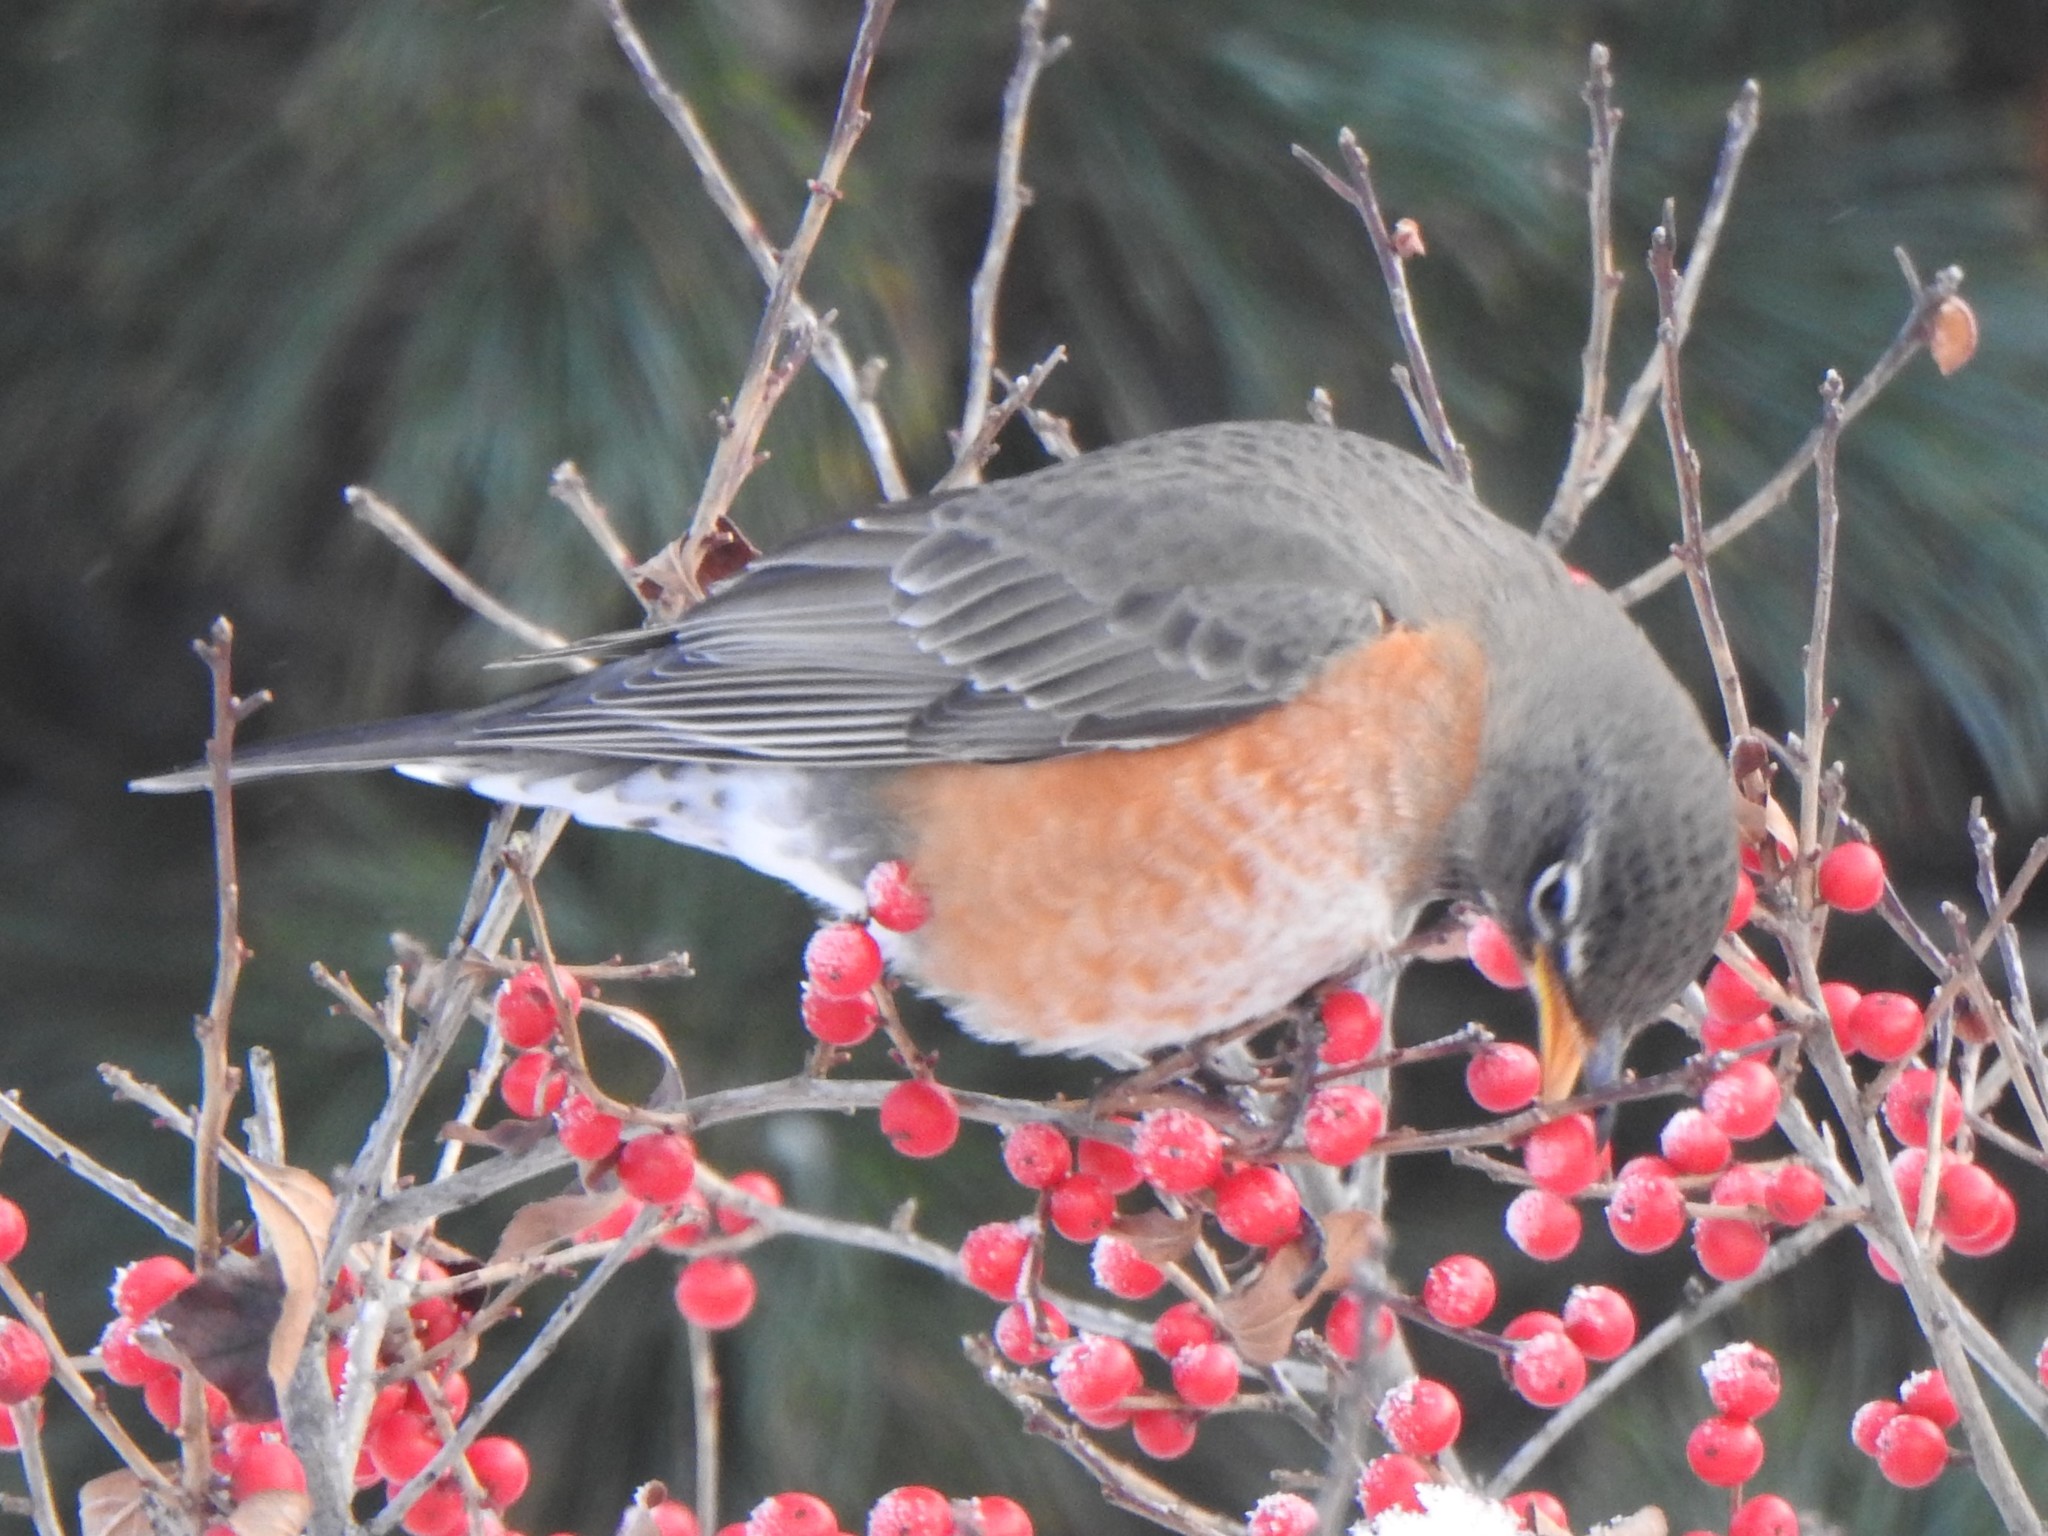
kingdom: Animalia
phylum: Chordata
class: Aves
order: Passeriformes
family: Turdidae
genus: Turdus
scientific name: Turdus migratorius
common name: American robin
